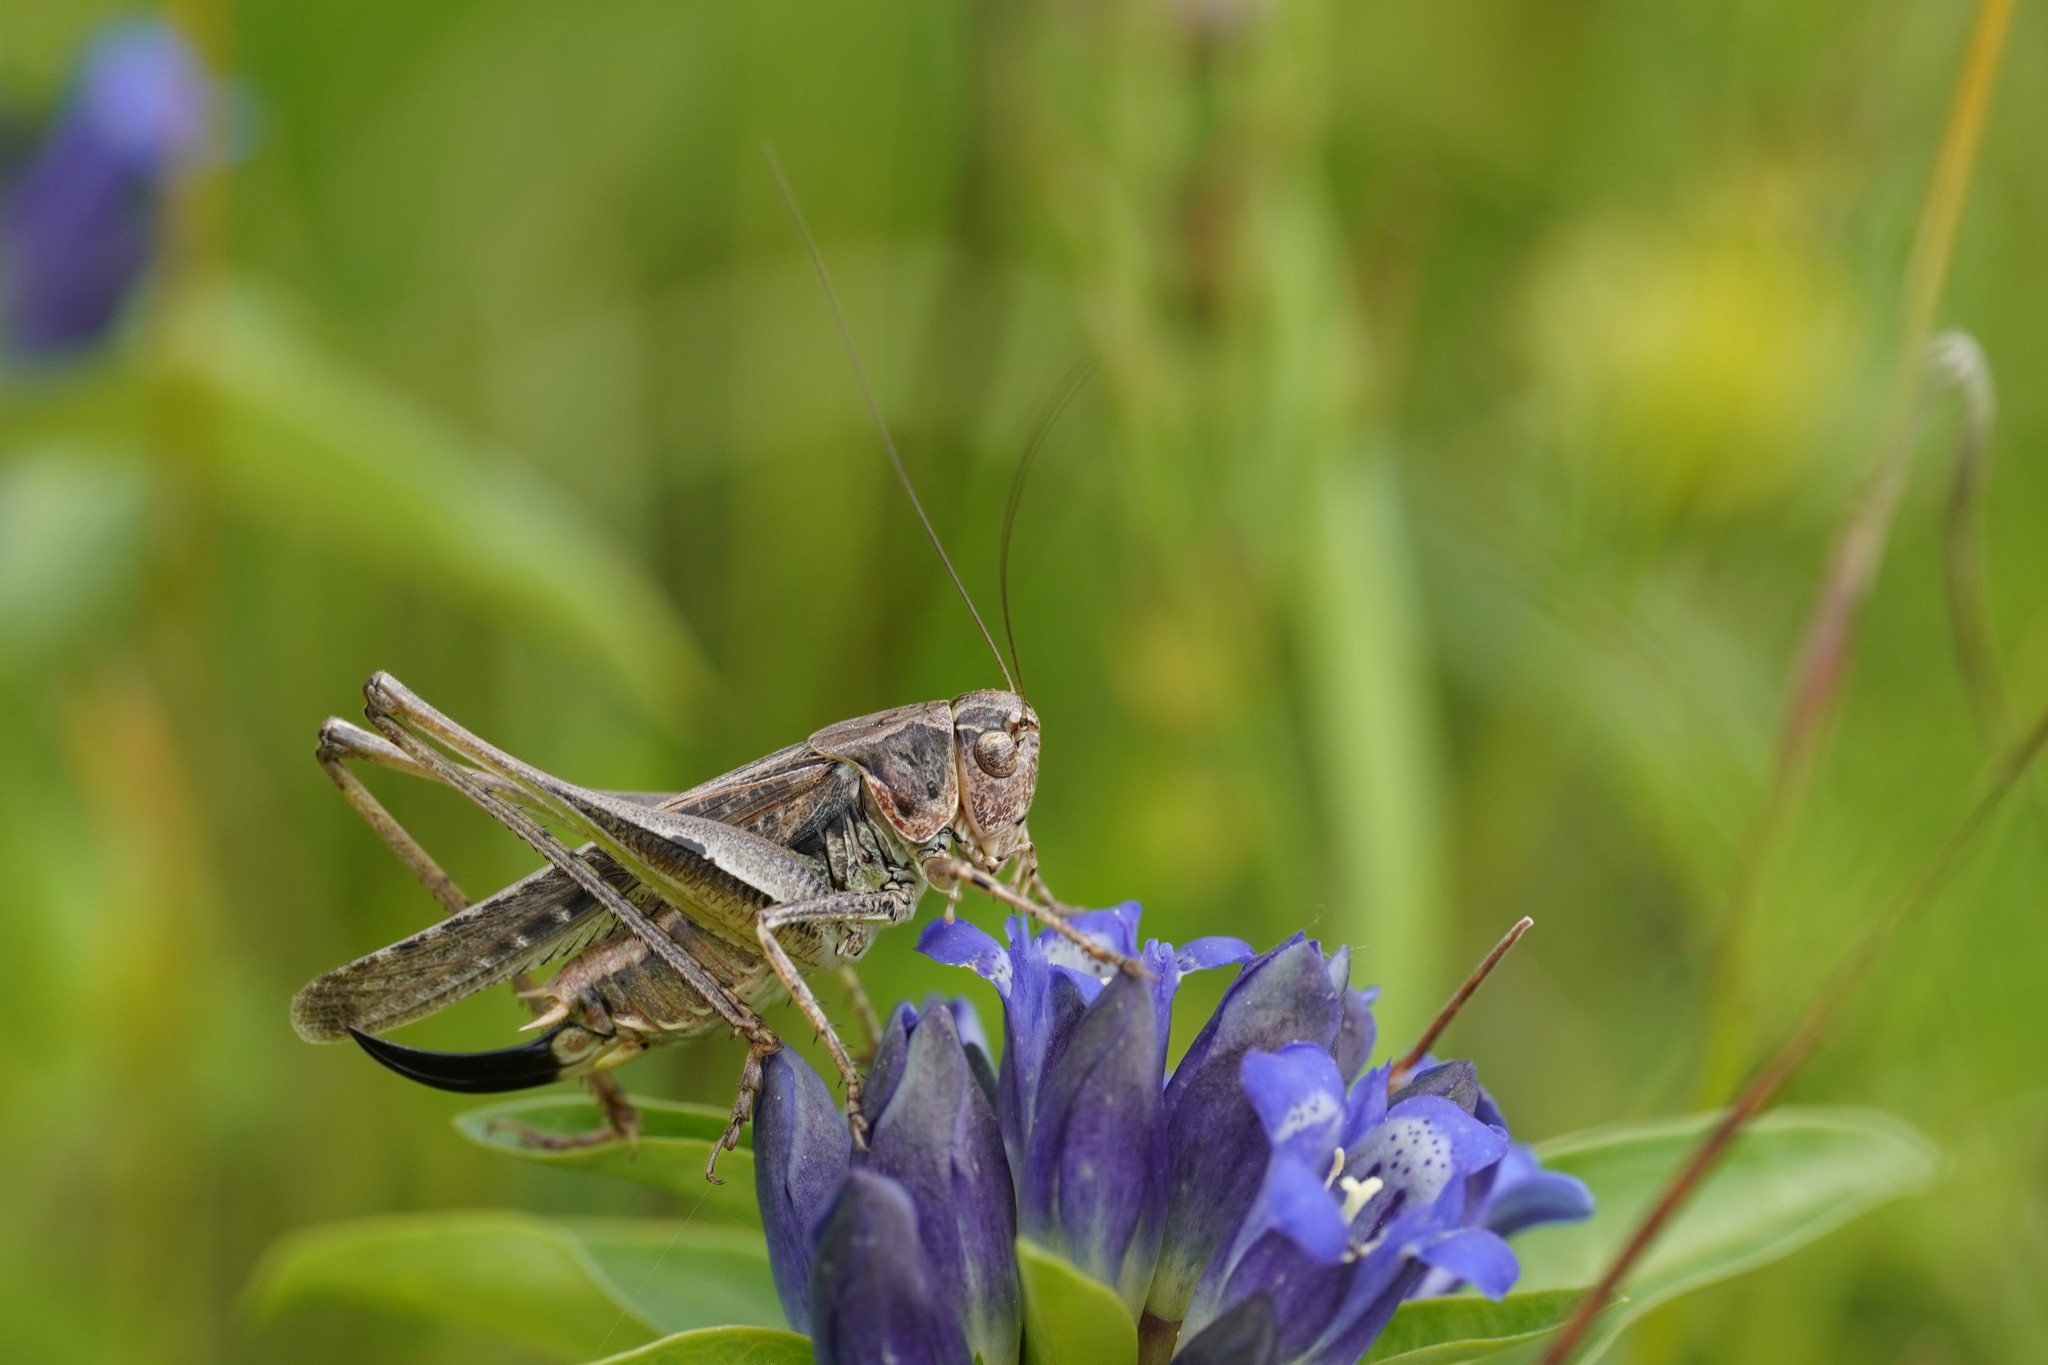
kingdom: Animalia
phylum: Arthropoda
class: Insecta
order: Orthoptera
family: Tettigoniidae
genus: Platycleis
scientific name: Platycleis albopunctata
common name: Grey bush-cricket
